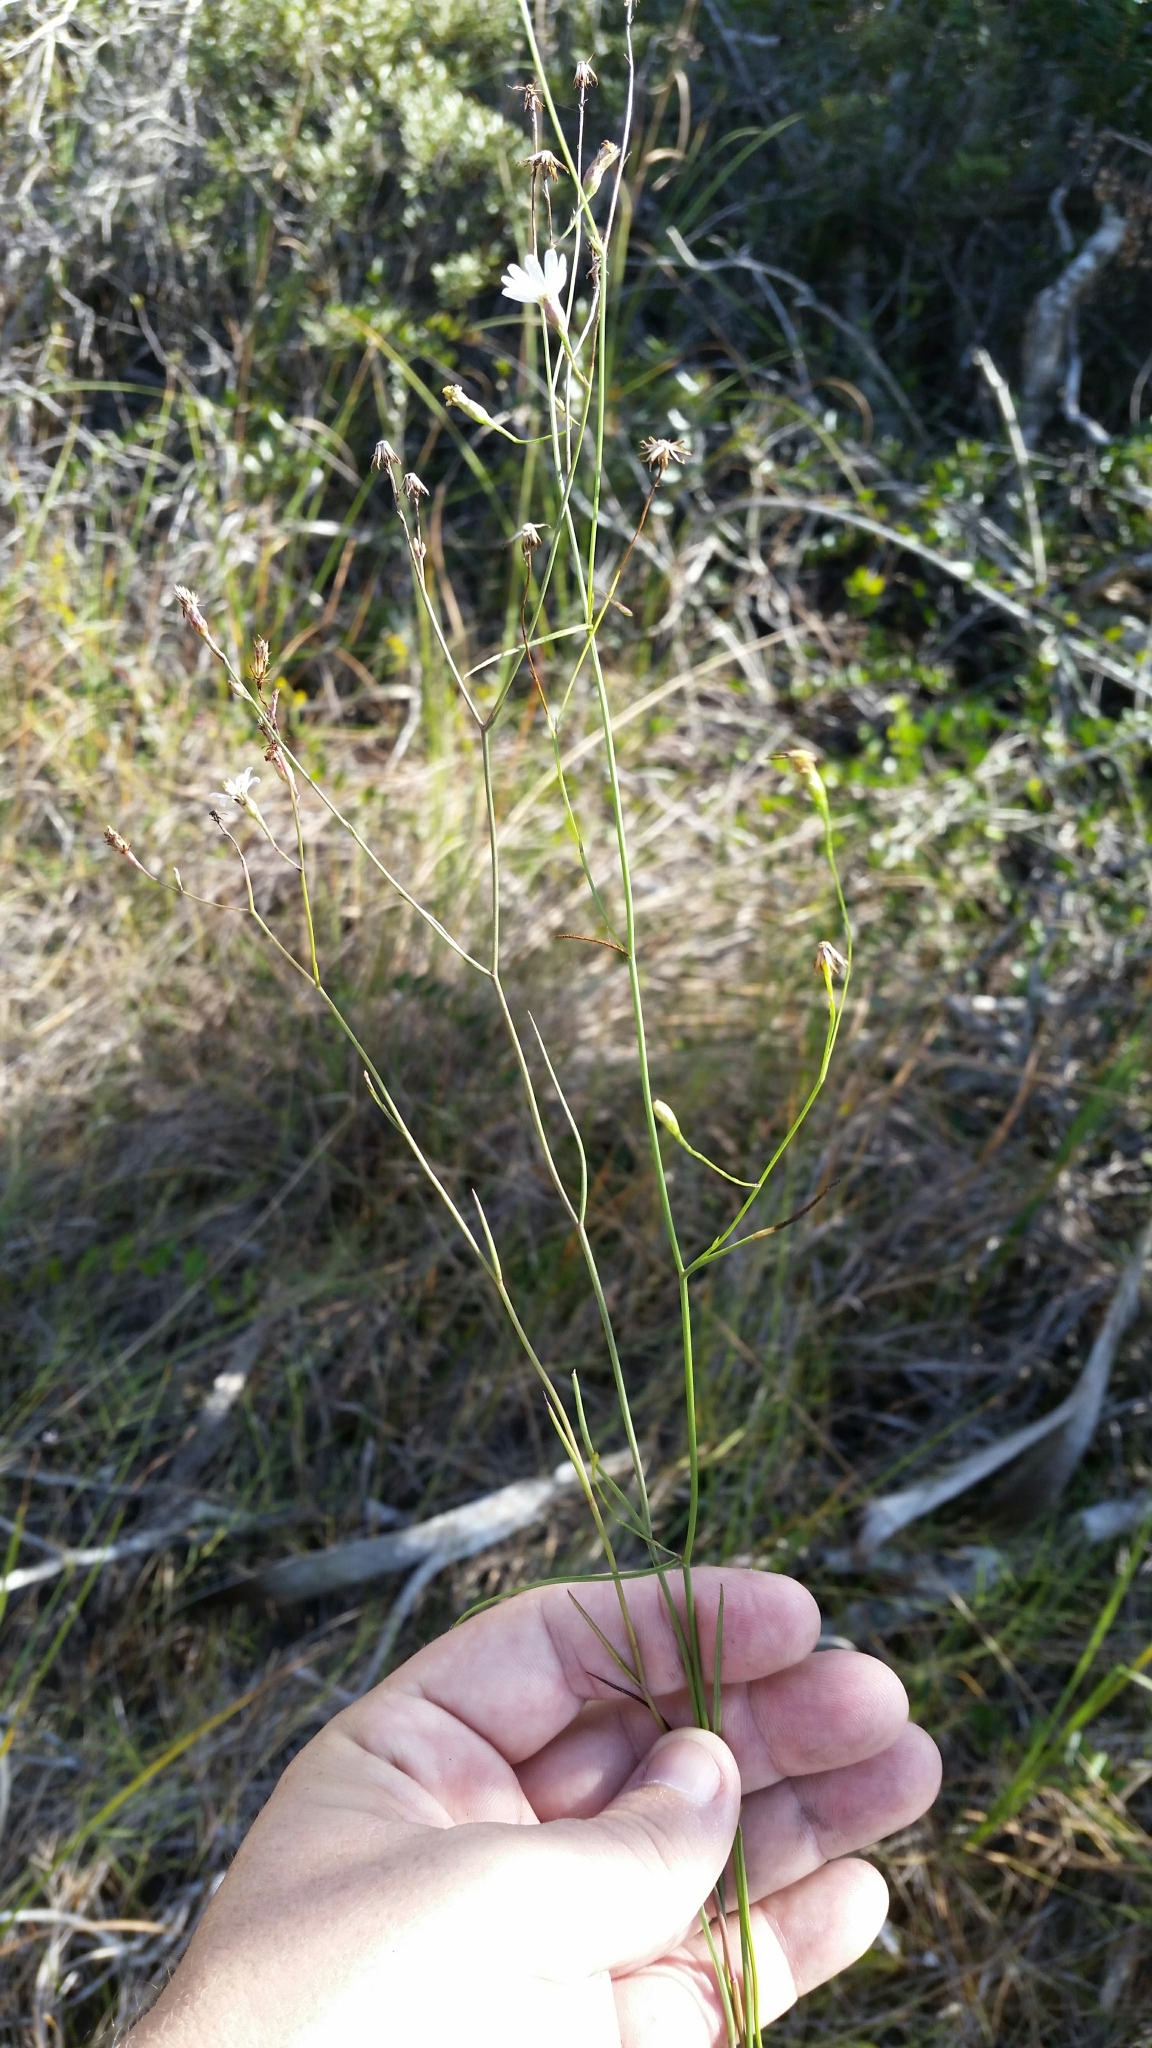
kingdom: Plantae
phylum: Tracheophyta
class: Magnoliopsida
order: Asterales
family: Asteraceae
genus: Symphyotrichum
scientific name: Symphyotrichum tenuifolium
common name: Perennial salt-marsh aster
